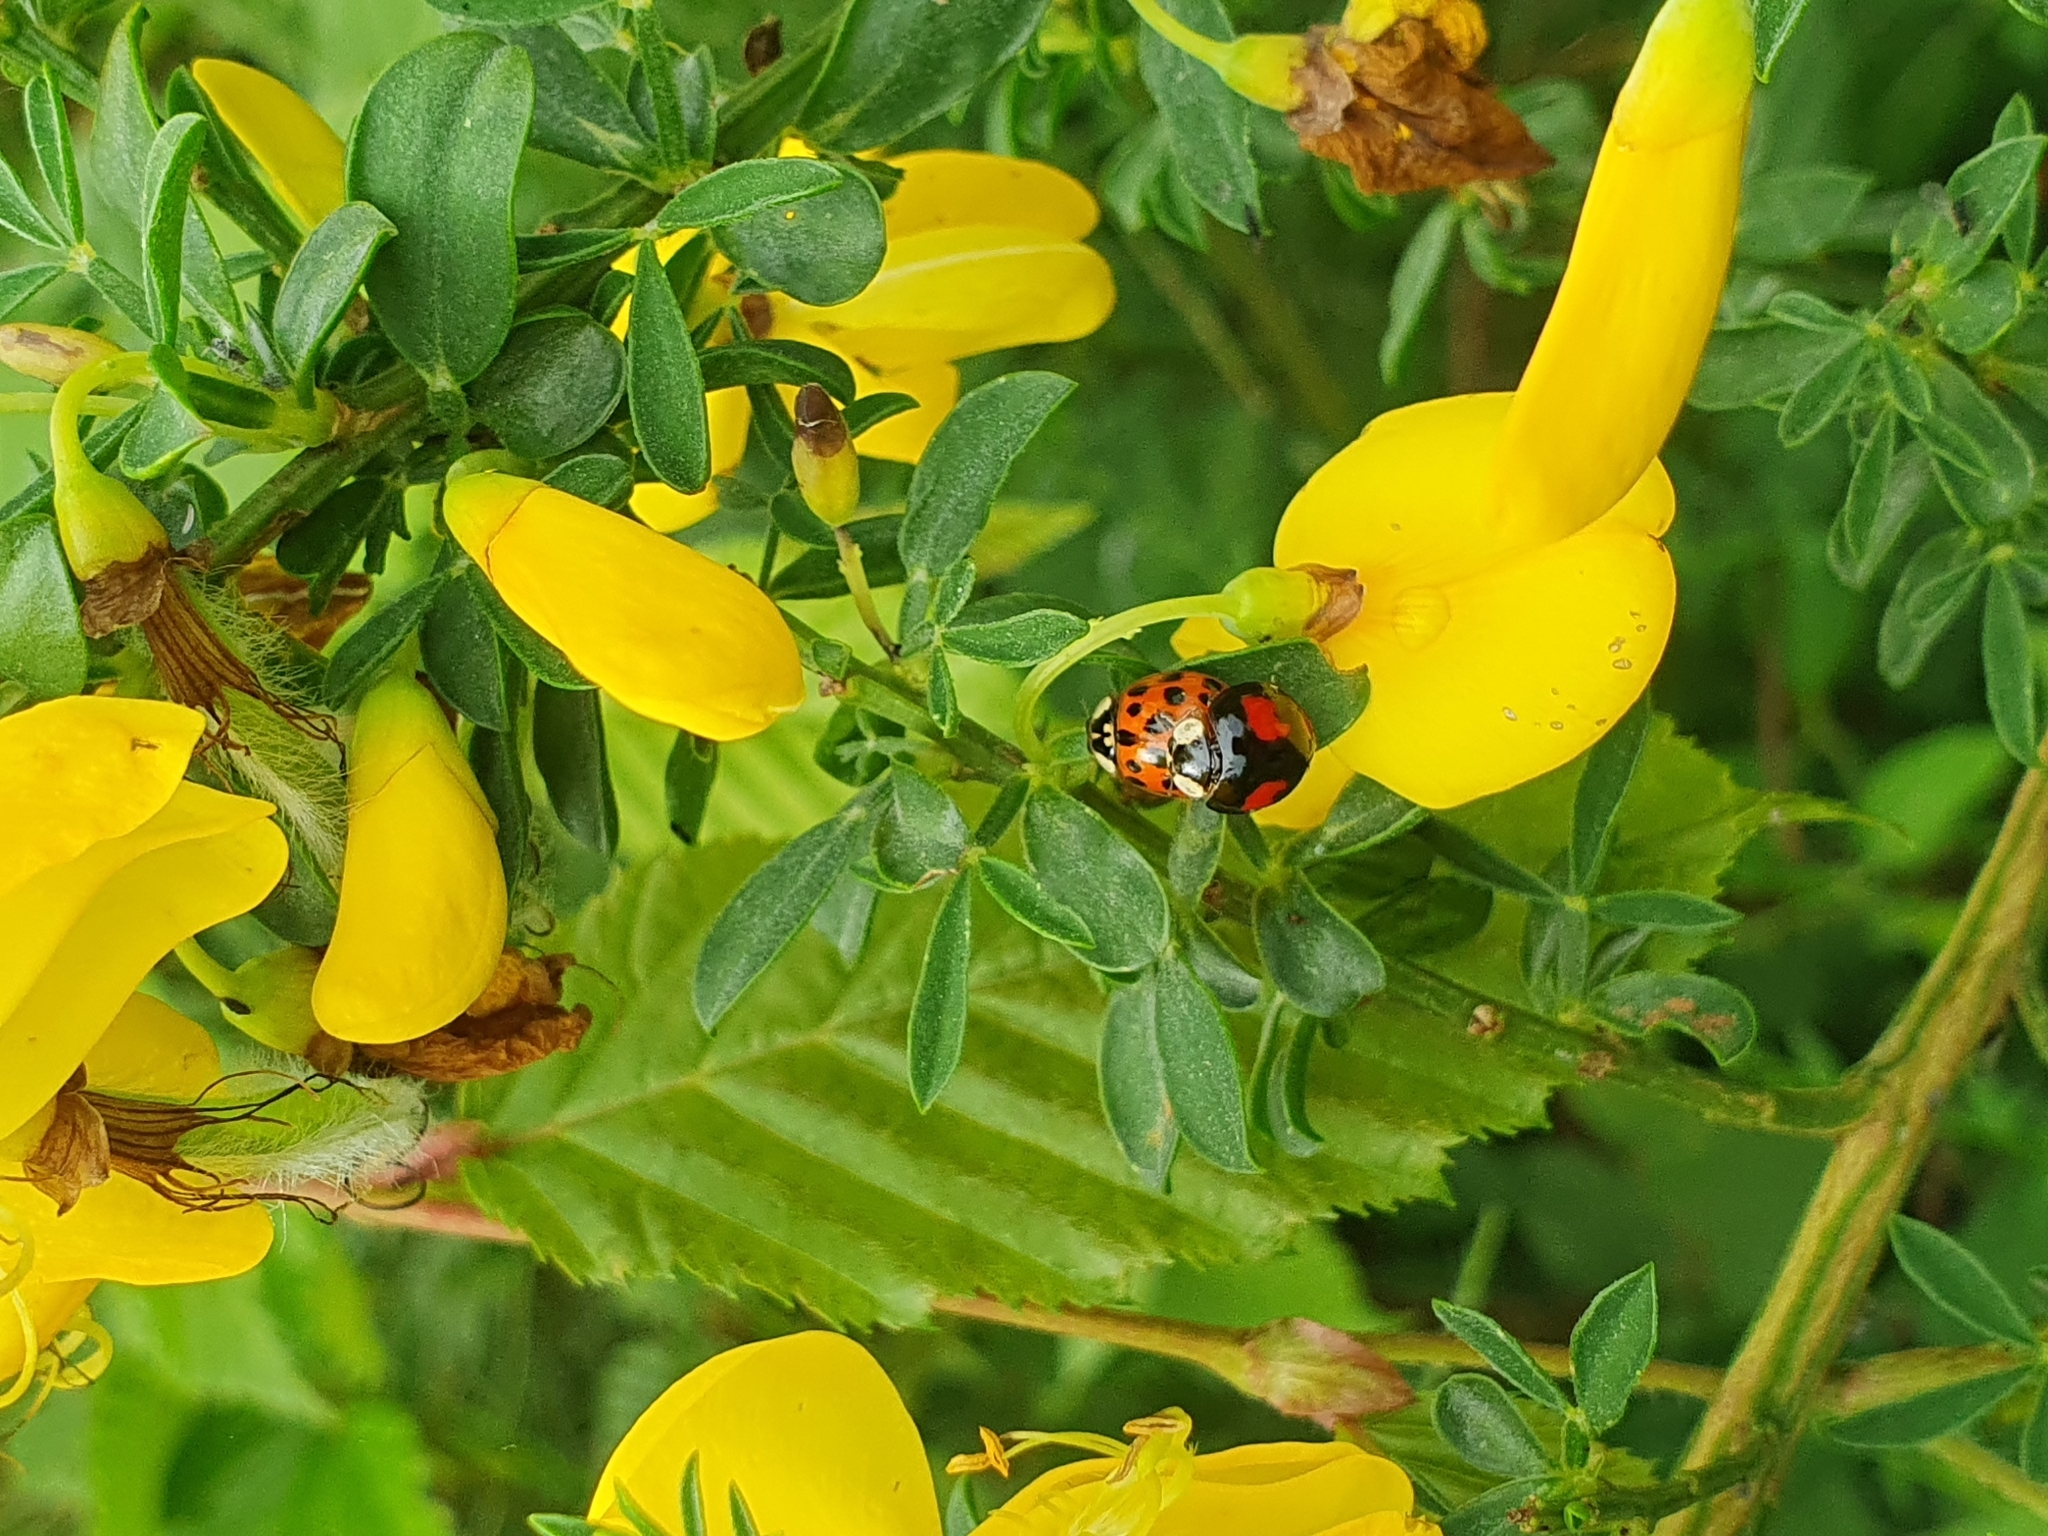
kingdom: Animalia
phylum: Arthropoda
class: Insecta
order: Coleoptera
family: Coccinellidae
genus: Harmonia
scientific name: Harmonia axyridis
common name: Harlequin ladybird
